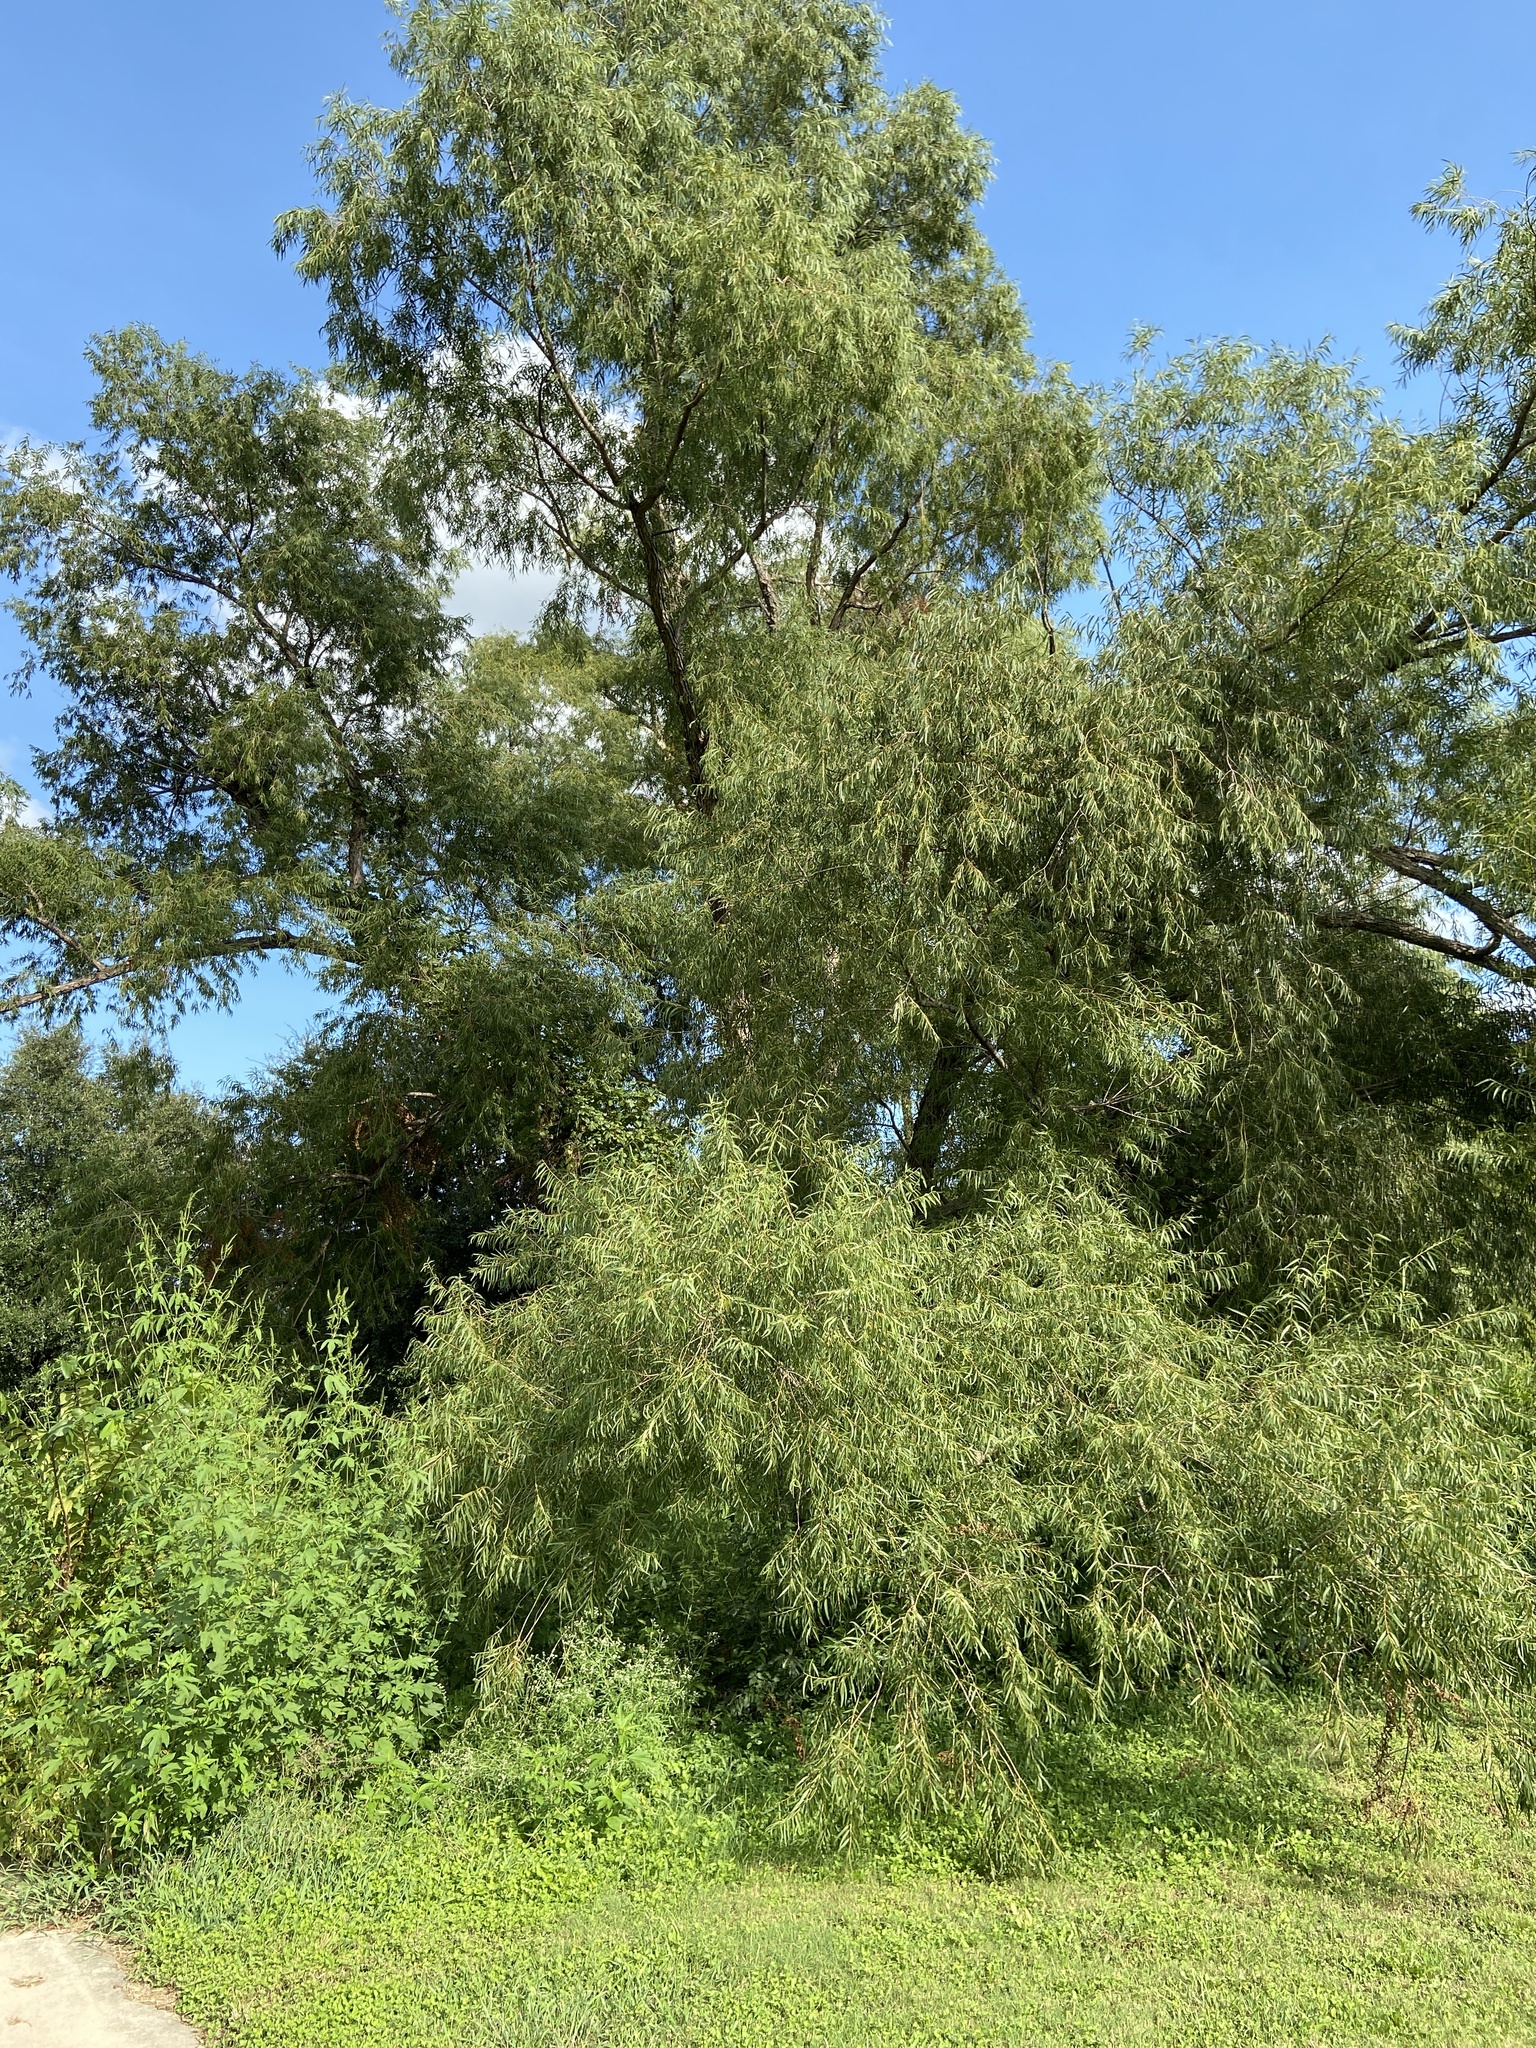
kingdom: Plantae
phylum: Tracheophyta
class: Magnoliopsida
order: Malpighiales
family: Salicaceae
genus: Salix
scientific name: Salix nigra
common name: Black willow
